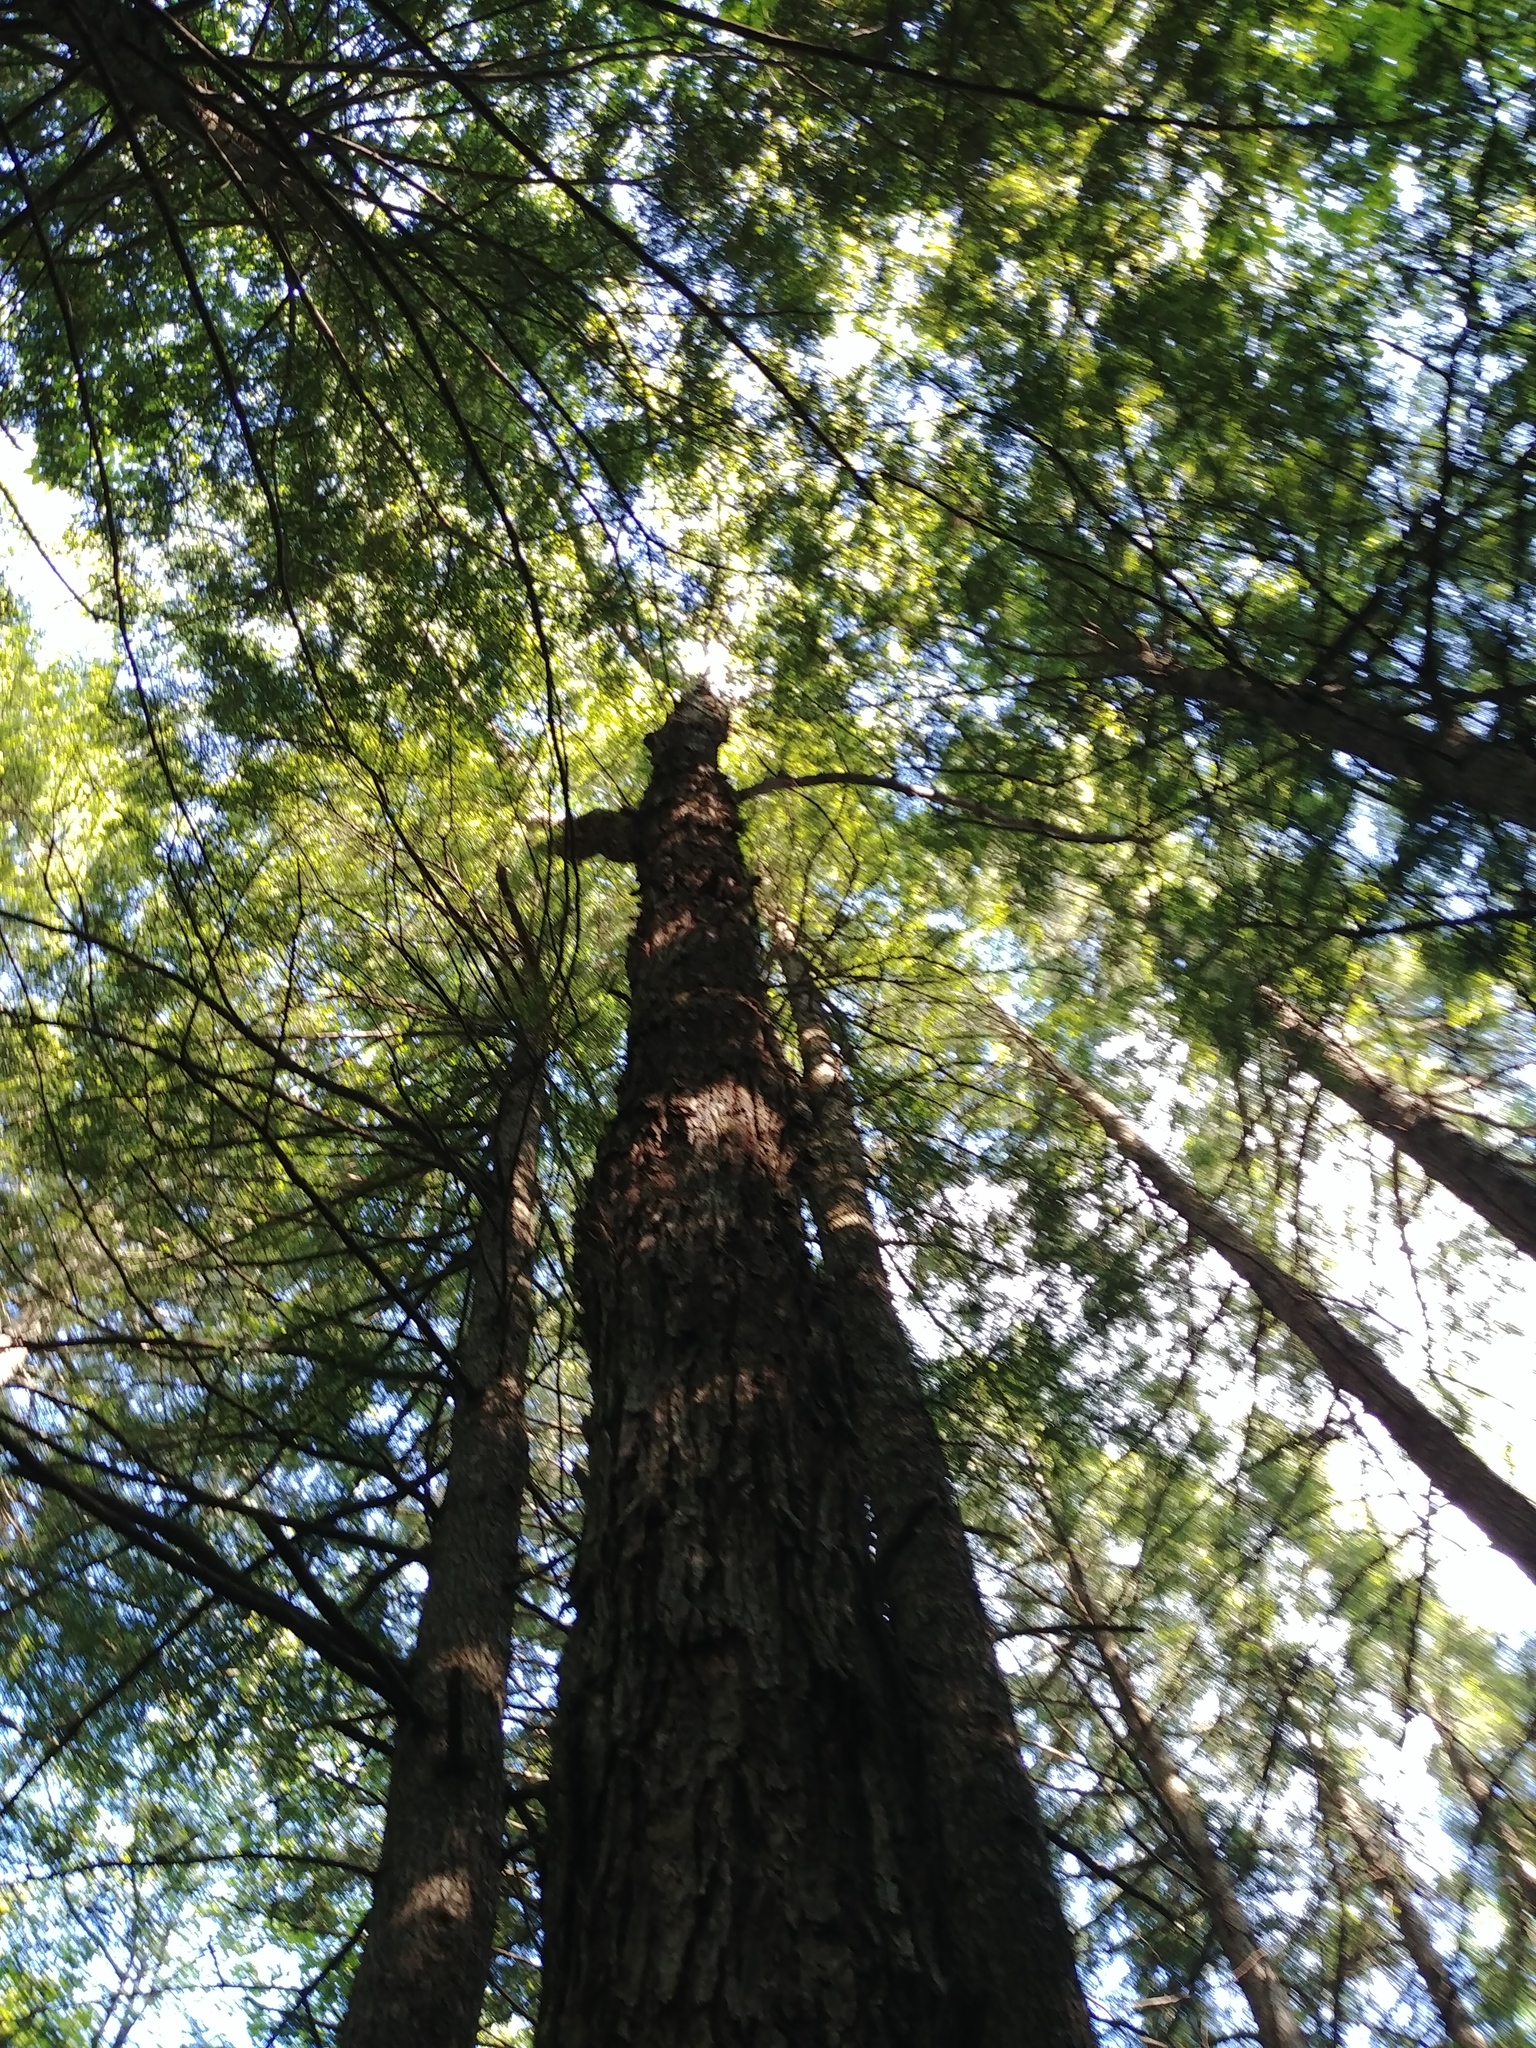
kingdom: Plantae
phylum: Tracheophyta
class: Magnoliopsida
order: Sapindales
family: Sapindaceae
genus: Acer
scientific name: Acer rubrum
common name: Red maple
